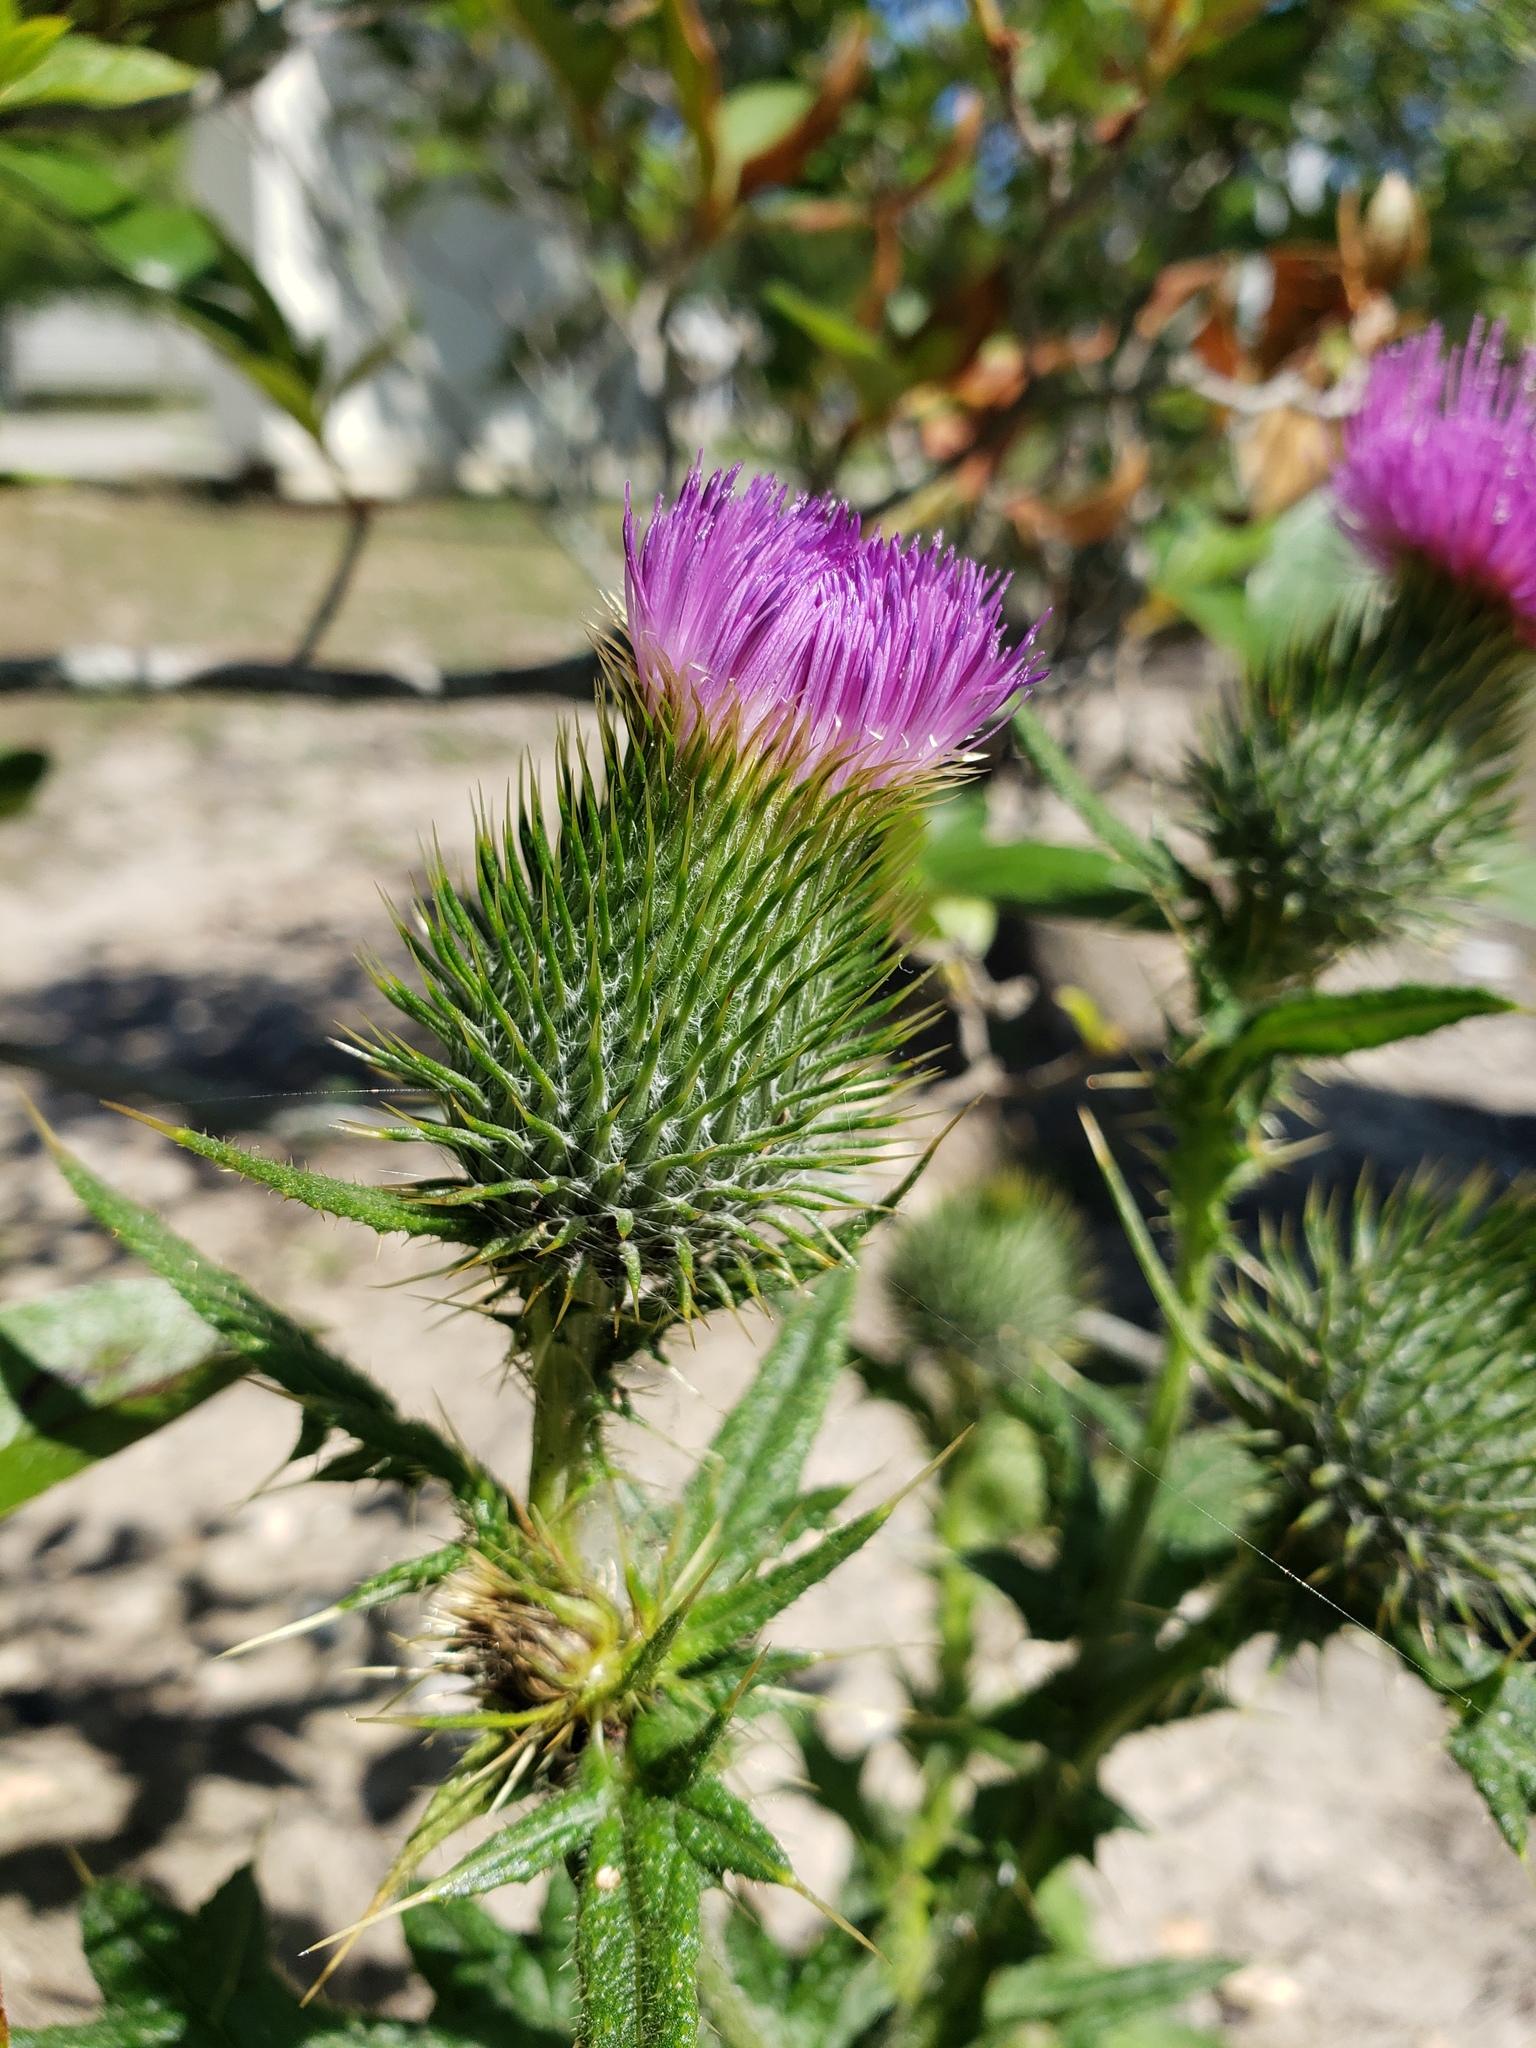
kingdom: Plantae
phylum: Tracheophyta
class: Magnoliopsida
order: Asterales
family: Asteraceae
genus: Cirsium
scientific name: Cirsium vulgare
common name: Bull thistle
